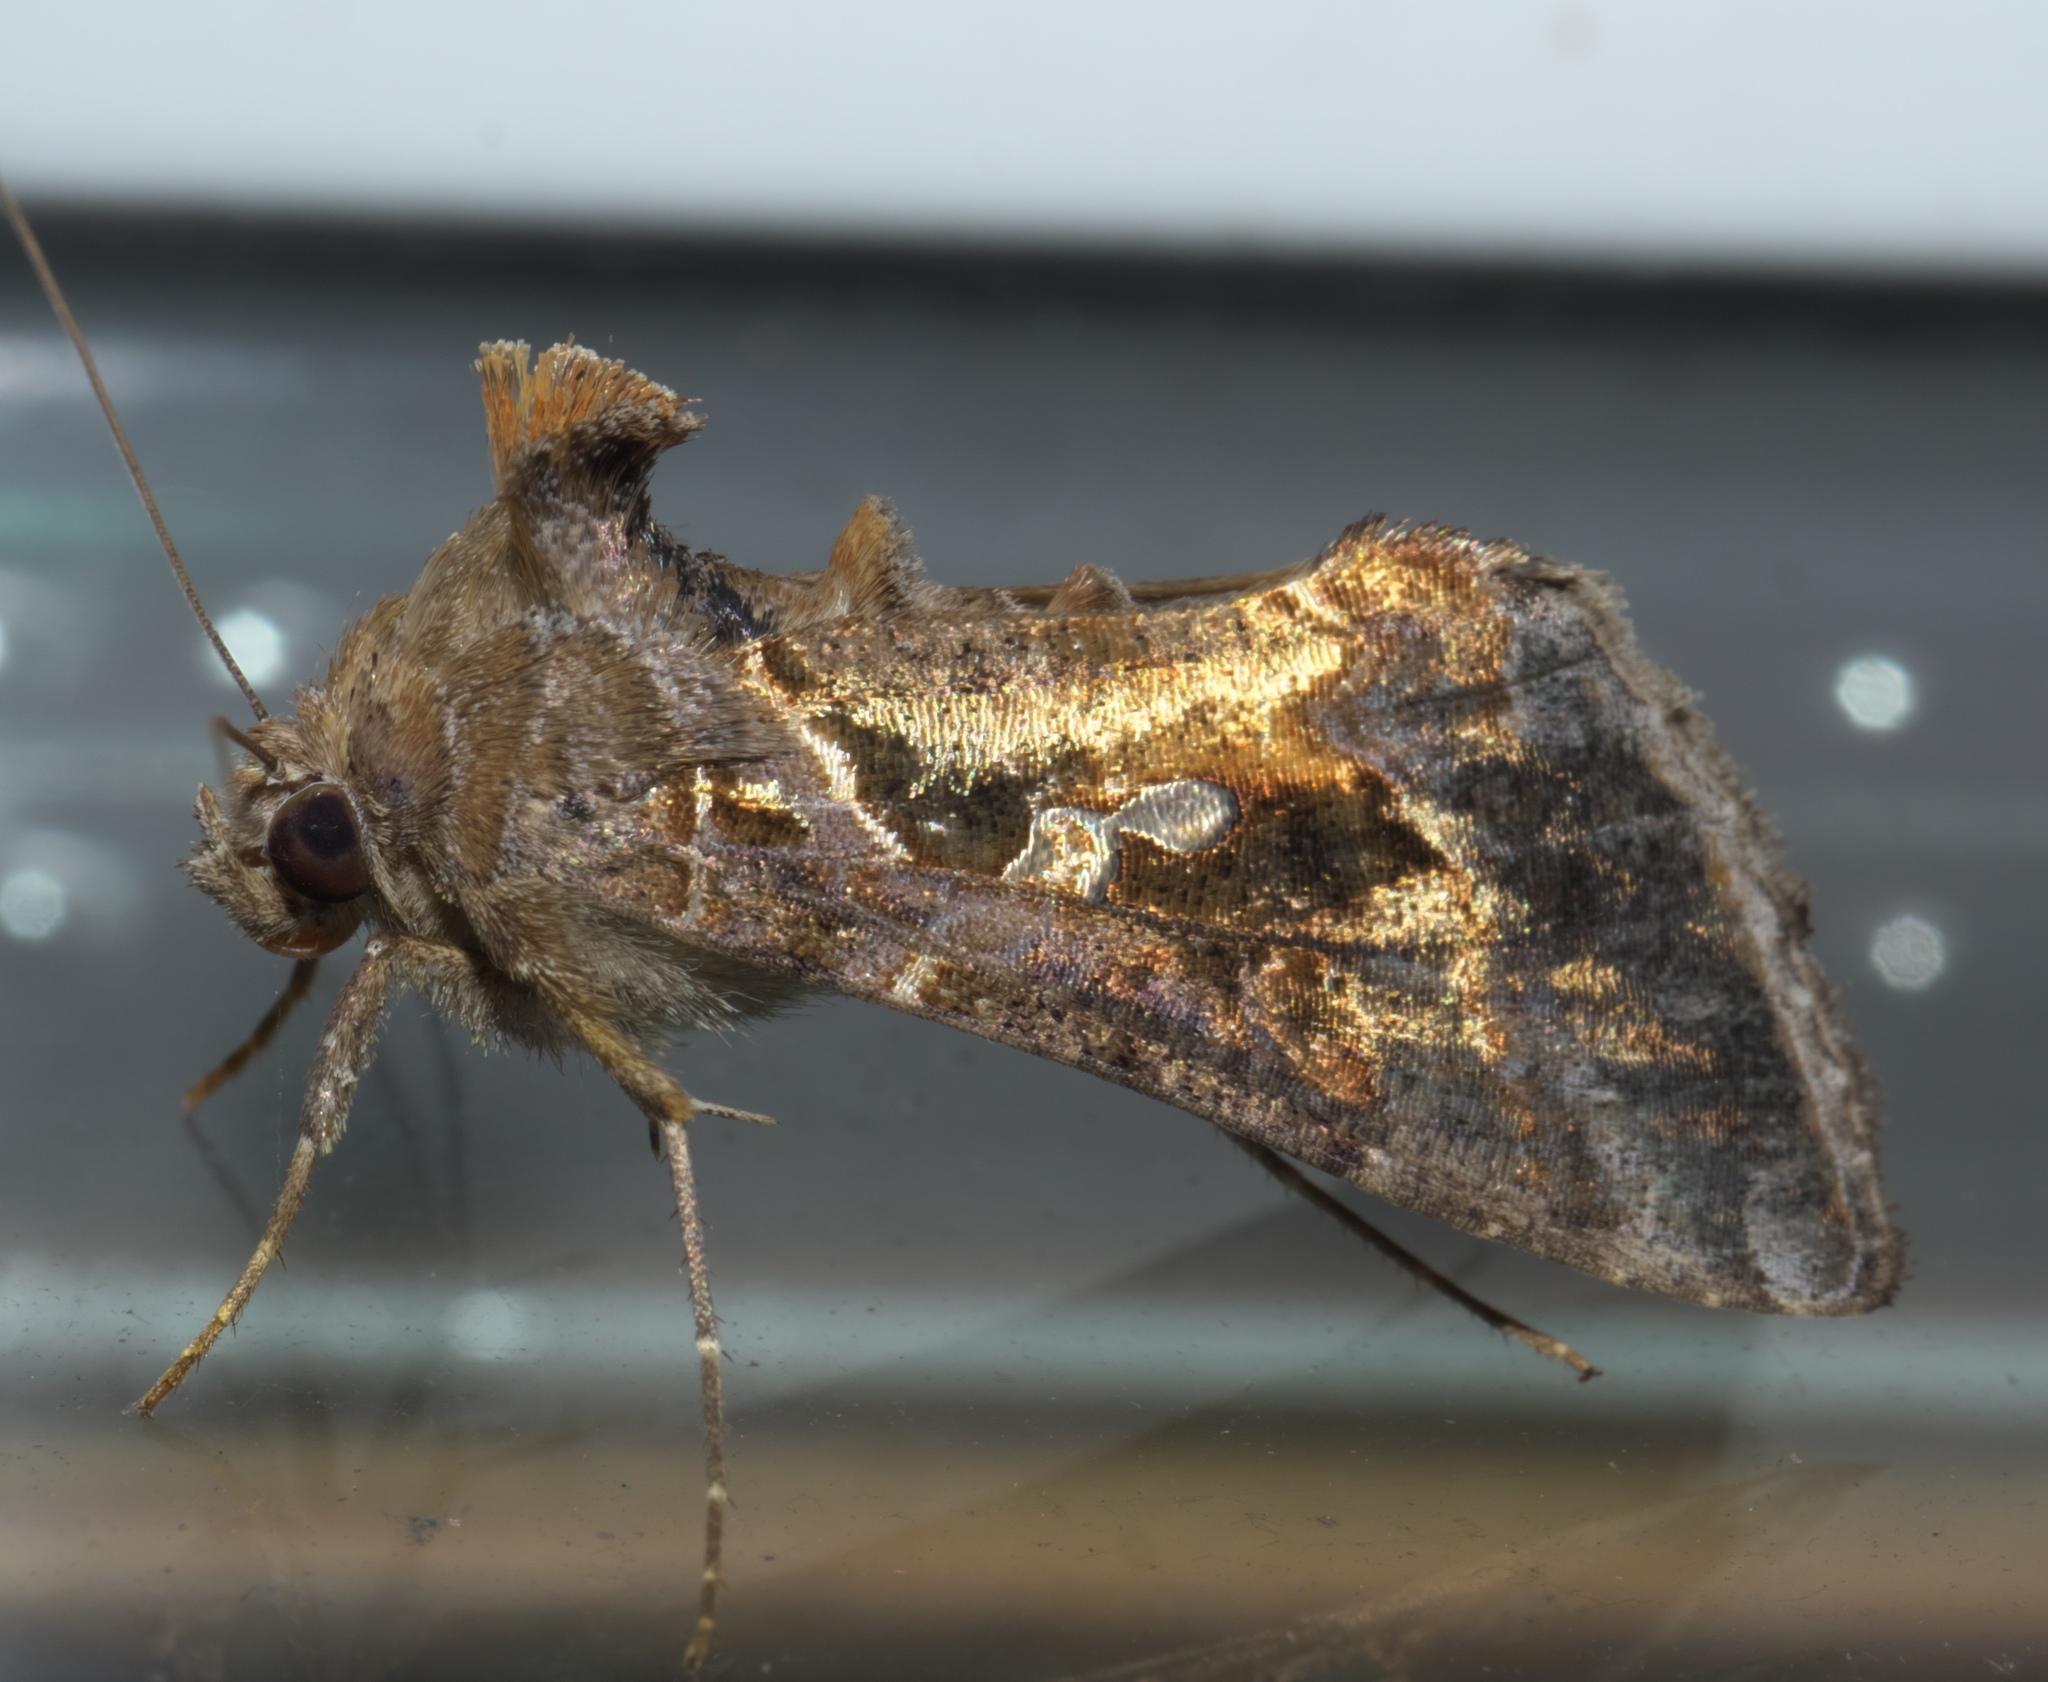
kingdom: Animalia
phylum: Arthropoda
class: Insecta
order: Lepidoptera
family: Noctuidae
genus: Chrysodeixis
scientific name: Chrysodeixis includens
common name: Cutworm moth
